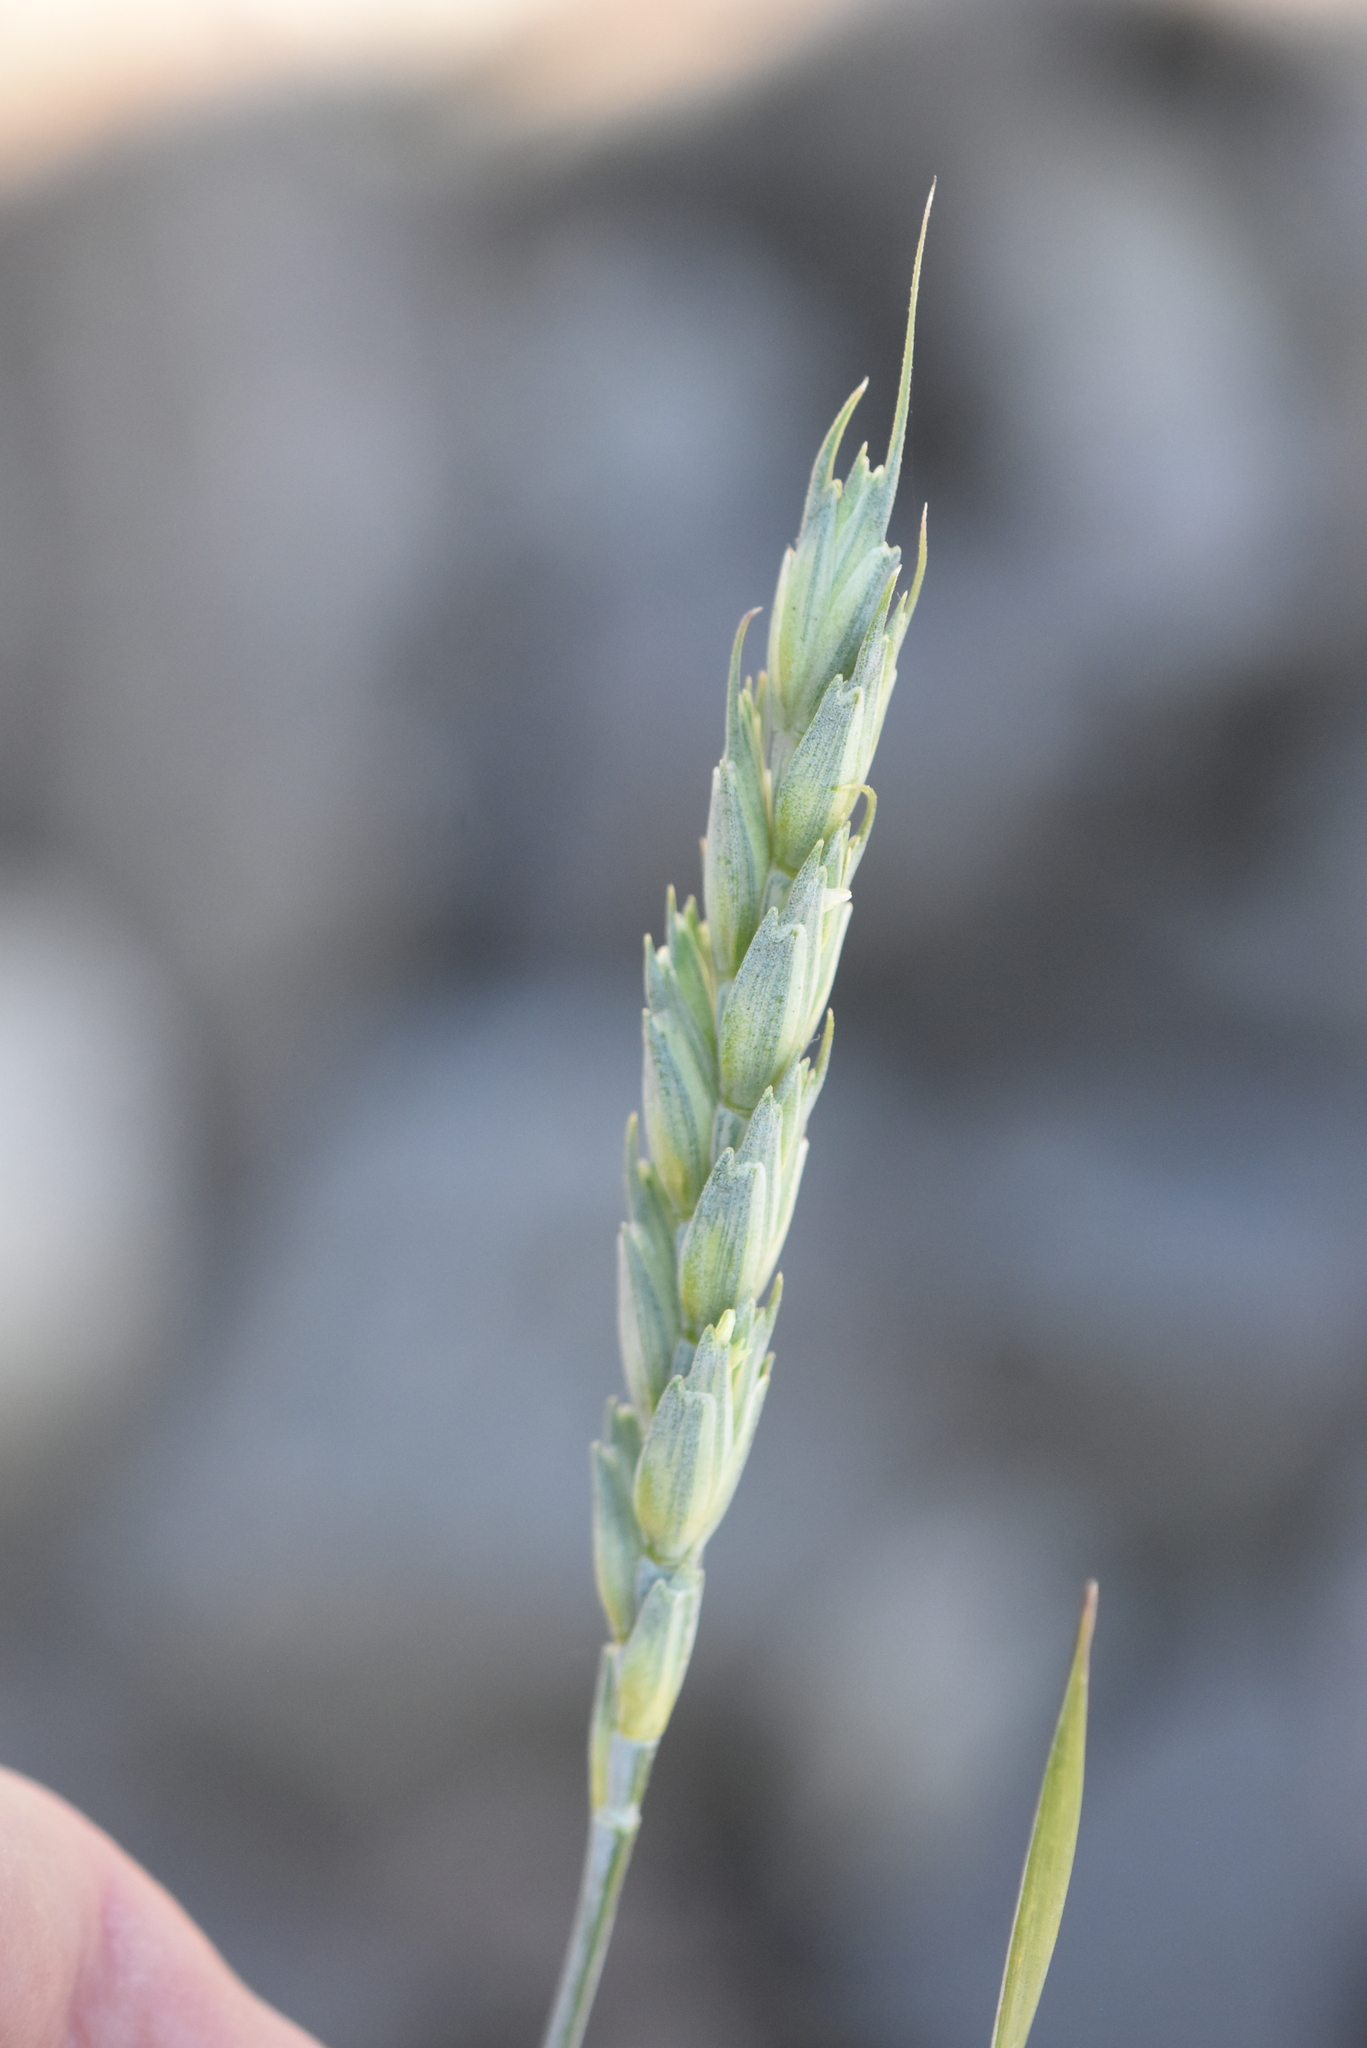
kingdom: Plantae
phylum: Tracheophyta
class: Liliopsida
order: Poales
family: Poaceae
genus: Triticum
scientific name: Triticum aestivum
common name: Common wheat
